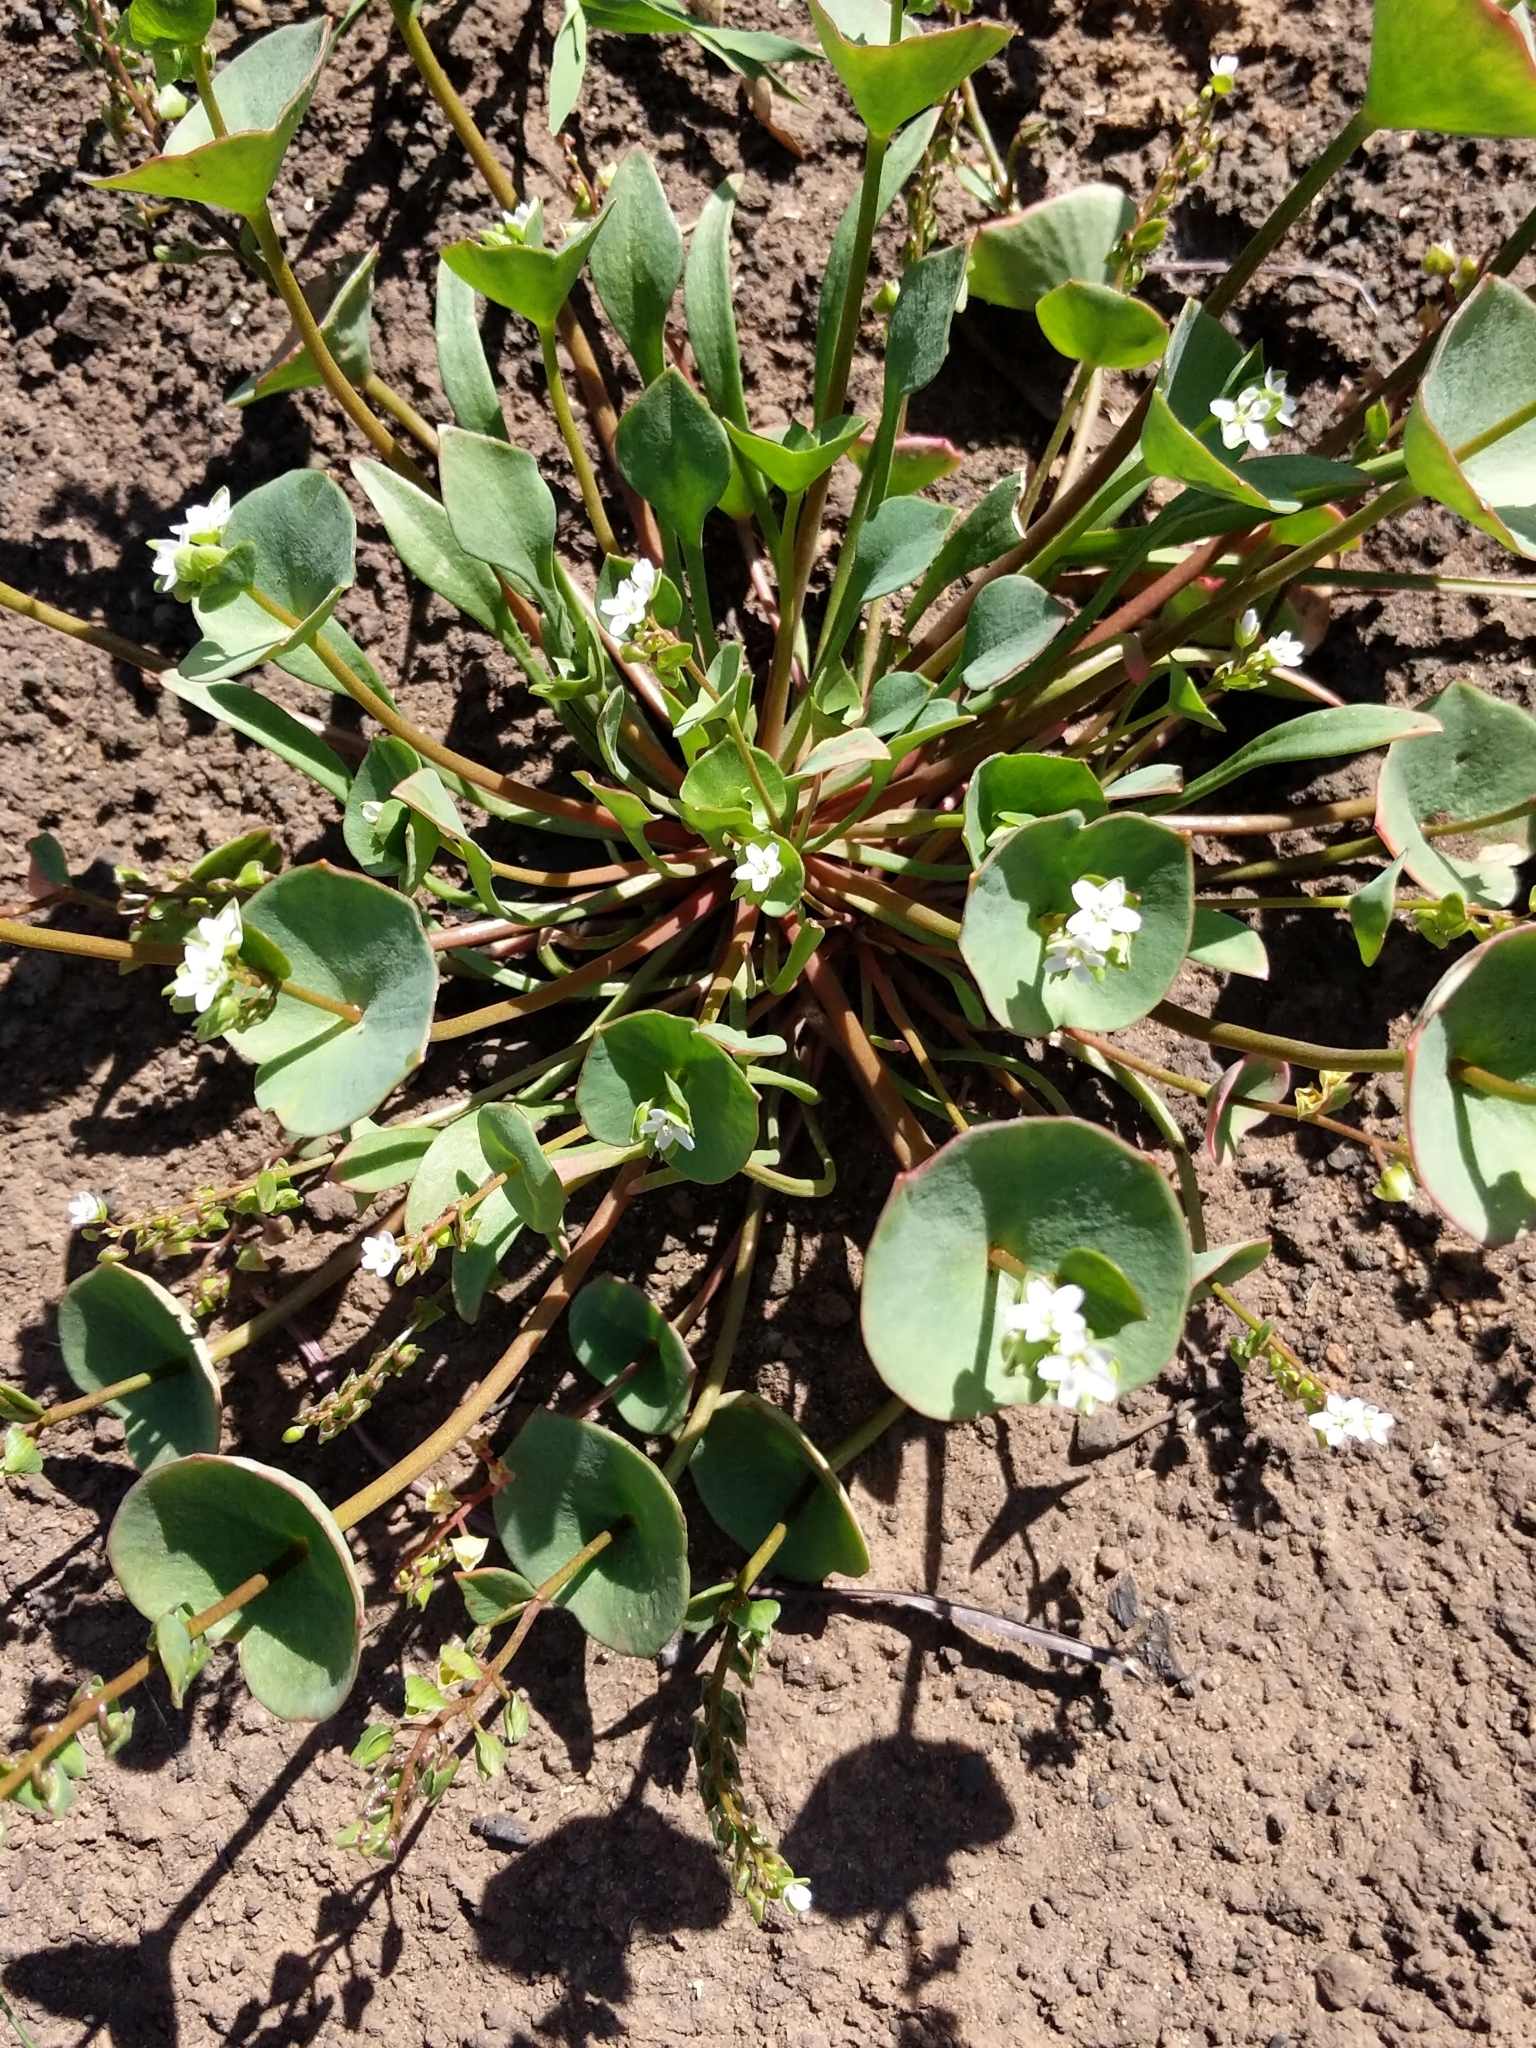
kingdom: Plantae
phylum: Tracheophyta
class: Magnoliopsida
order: Caryophyllales
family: Montiaceae
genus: Claytonia
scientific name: Claytonia perfoliata
